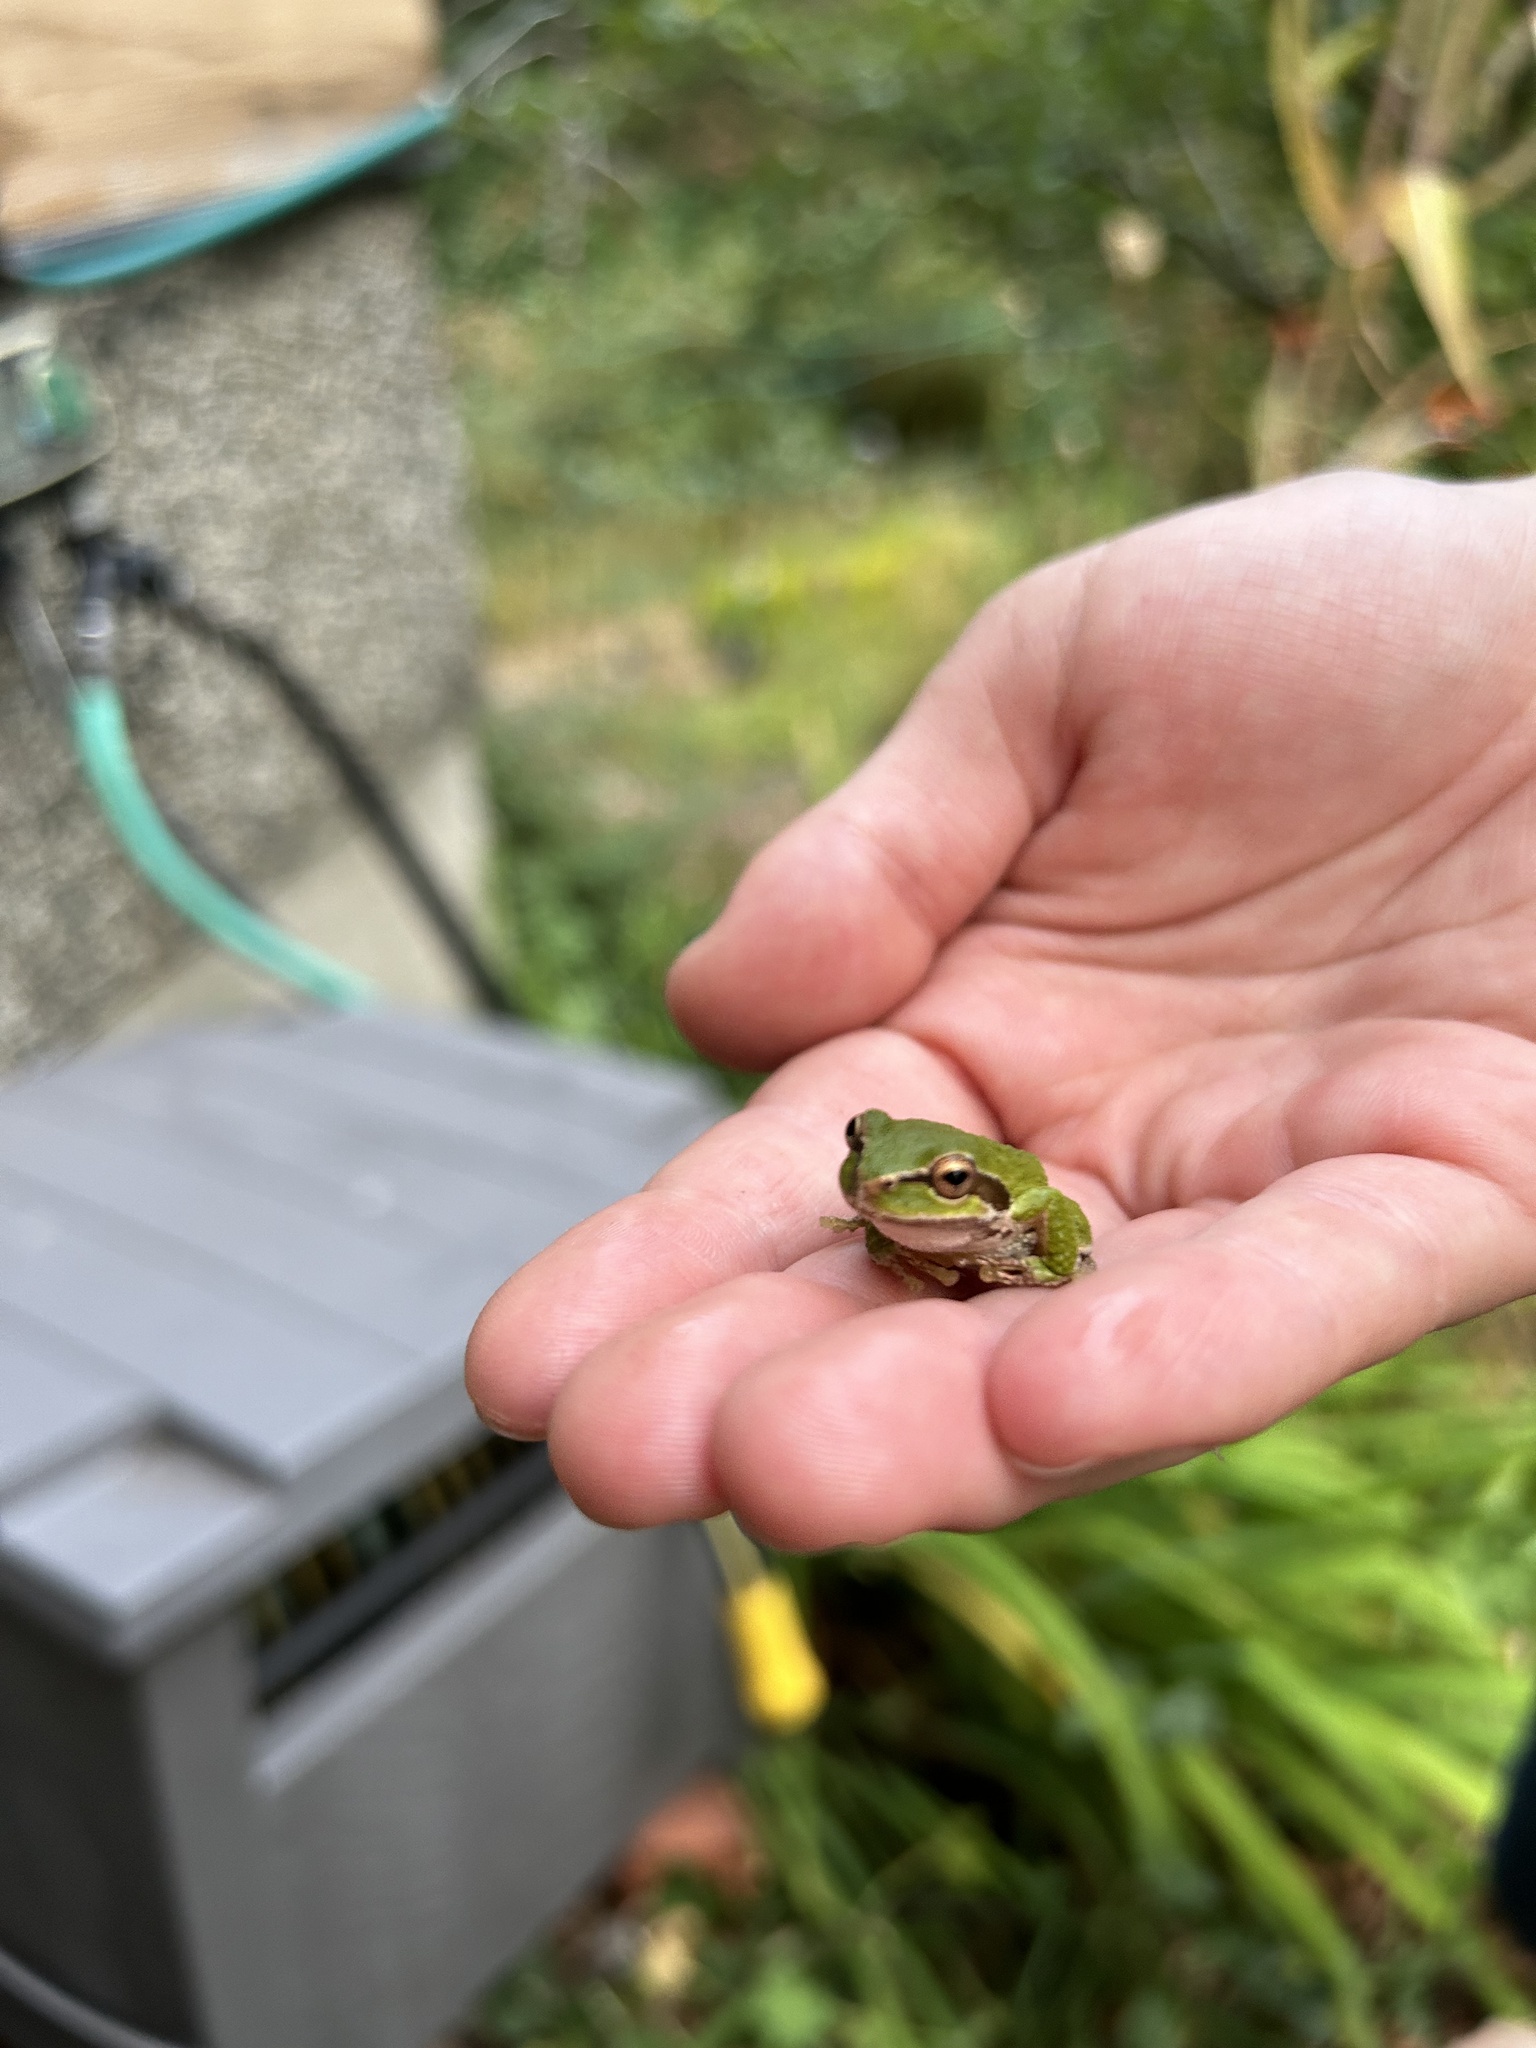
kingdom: Animalia
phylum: Chordata
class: Amphibia
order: Anura
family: Hylidae
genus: Pseudacris
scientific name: Pseudacris regilla
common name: Pacific chorus frog
